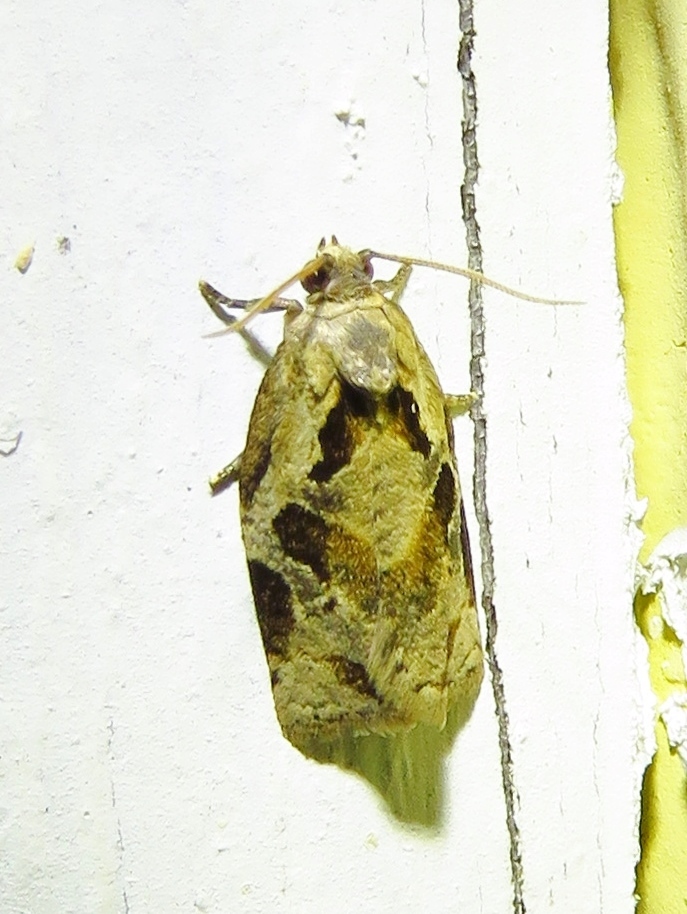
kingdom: Animalia
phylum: Arthropoda
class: Insecta
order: Lepidoptera
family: Tortricidae
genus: Archips
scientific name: Archips grisea
